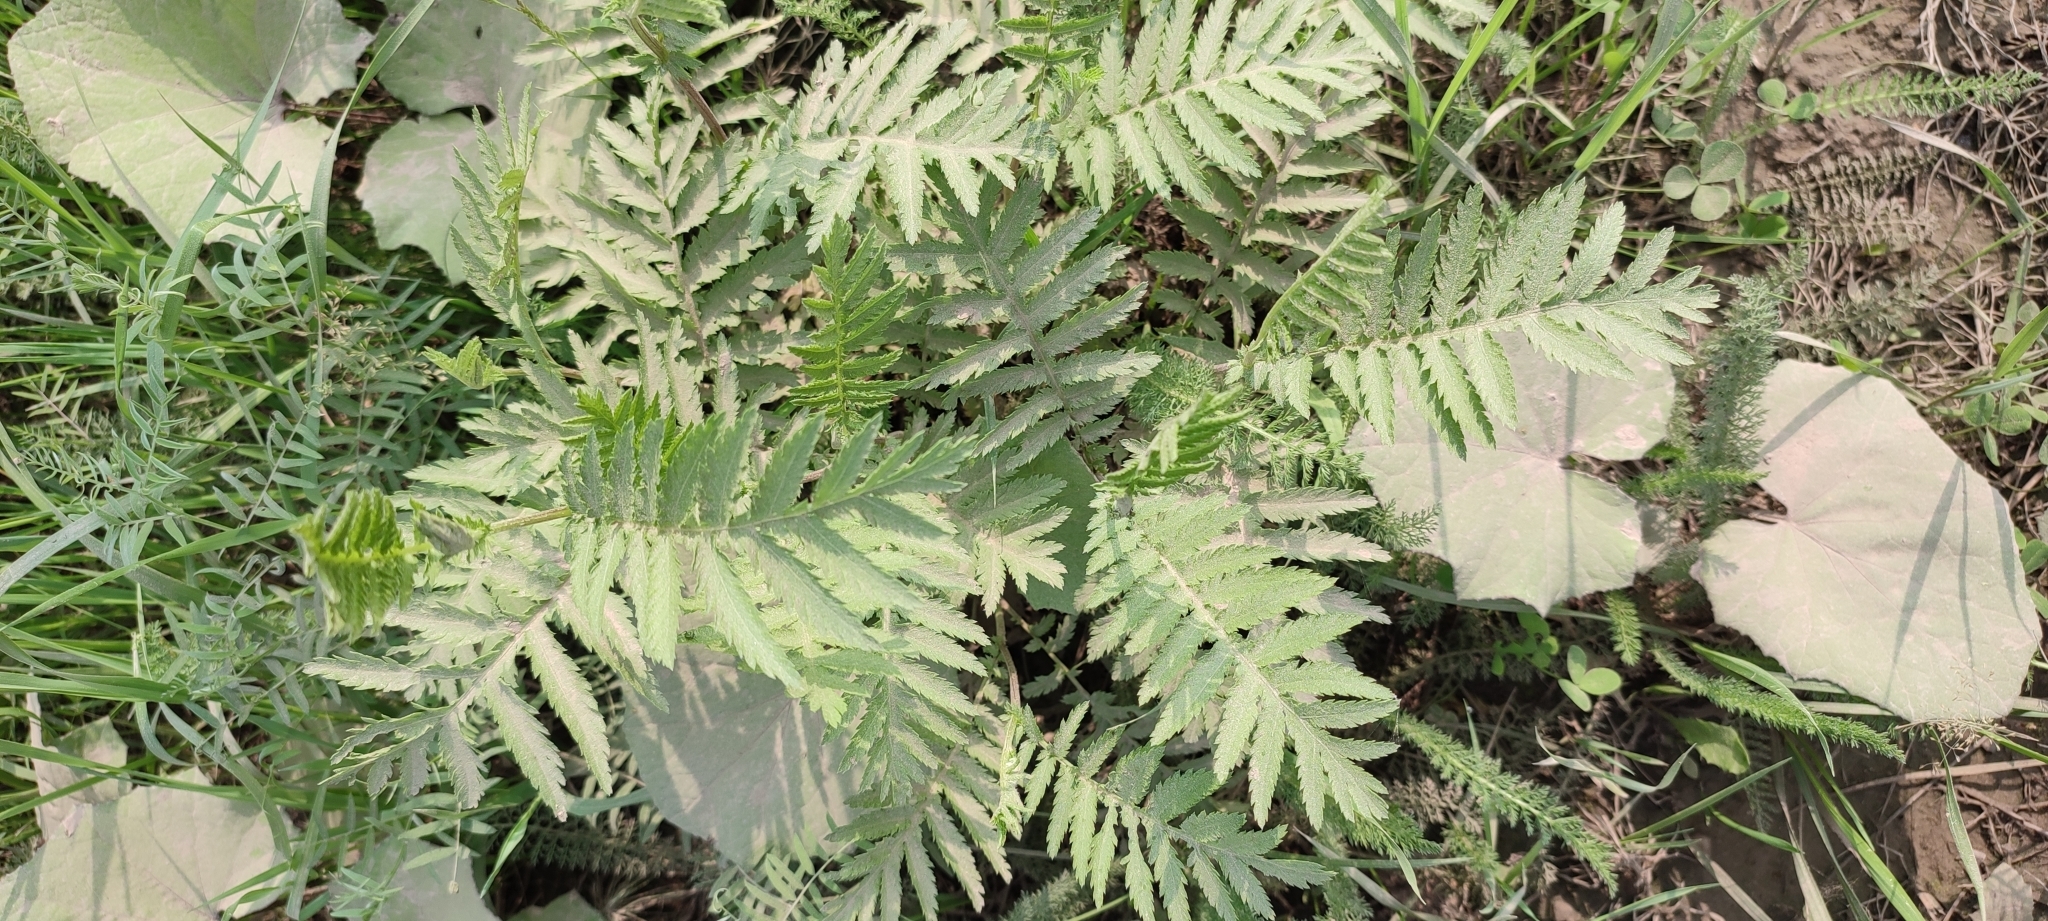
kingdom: Plantae
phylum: Tracheophyta
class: Magnoliopsida
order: Asterales
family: Asteraceae
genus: Tanacetum
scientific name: Tanacetum vulgare
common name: Common tansy
